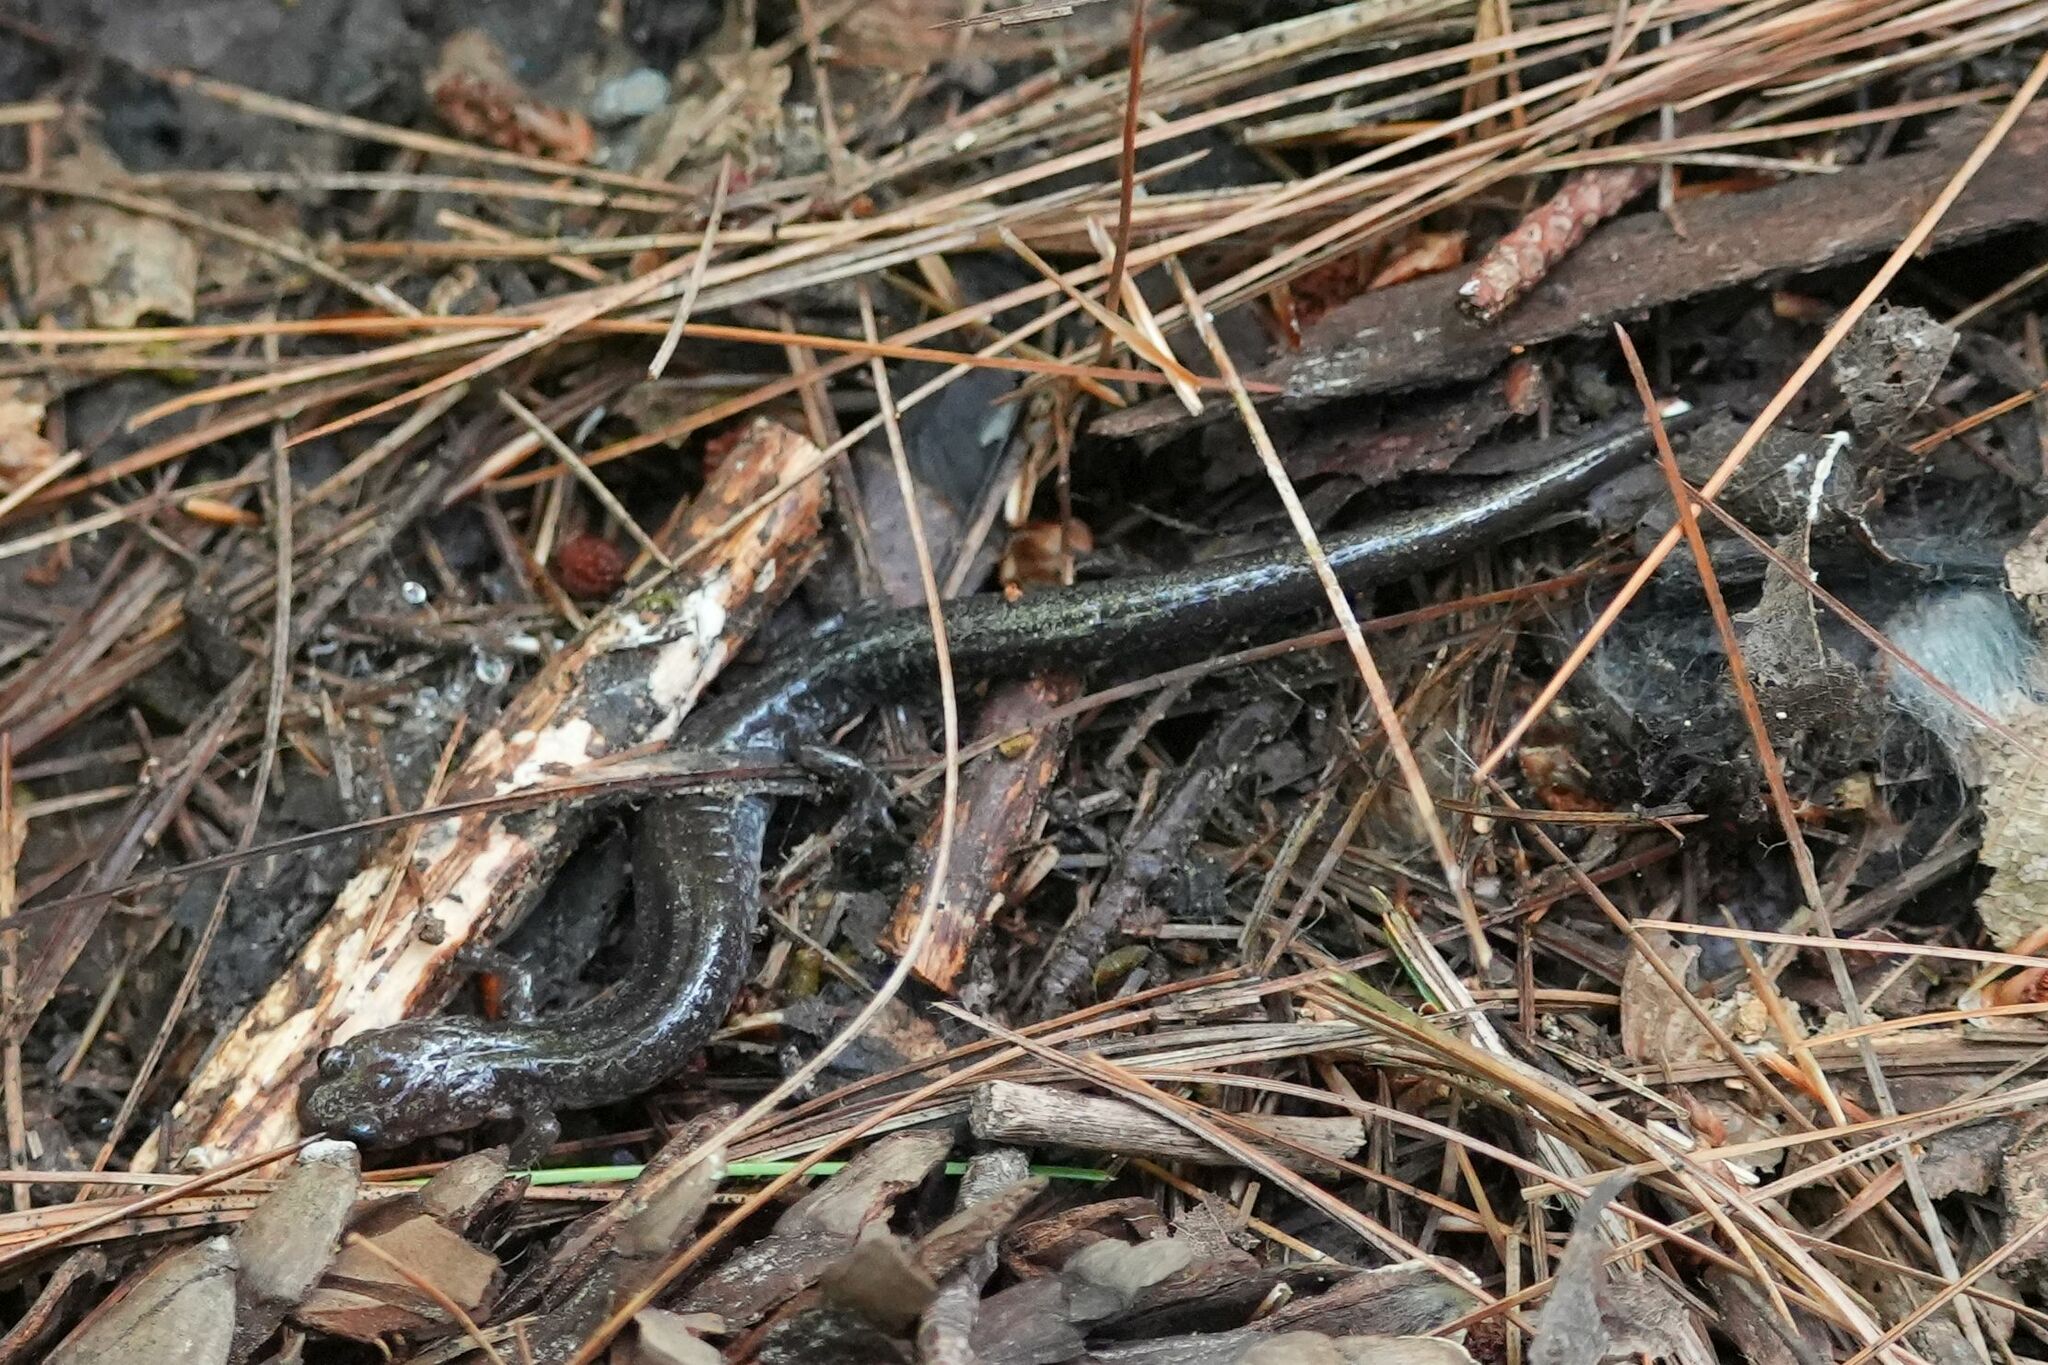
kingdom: Animalia
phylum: Chordata
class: Amphibia
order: Caudata
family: Plethodontidae
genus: Plethodon
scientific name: Plethodon cinereus
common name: Redback salamander
